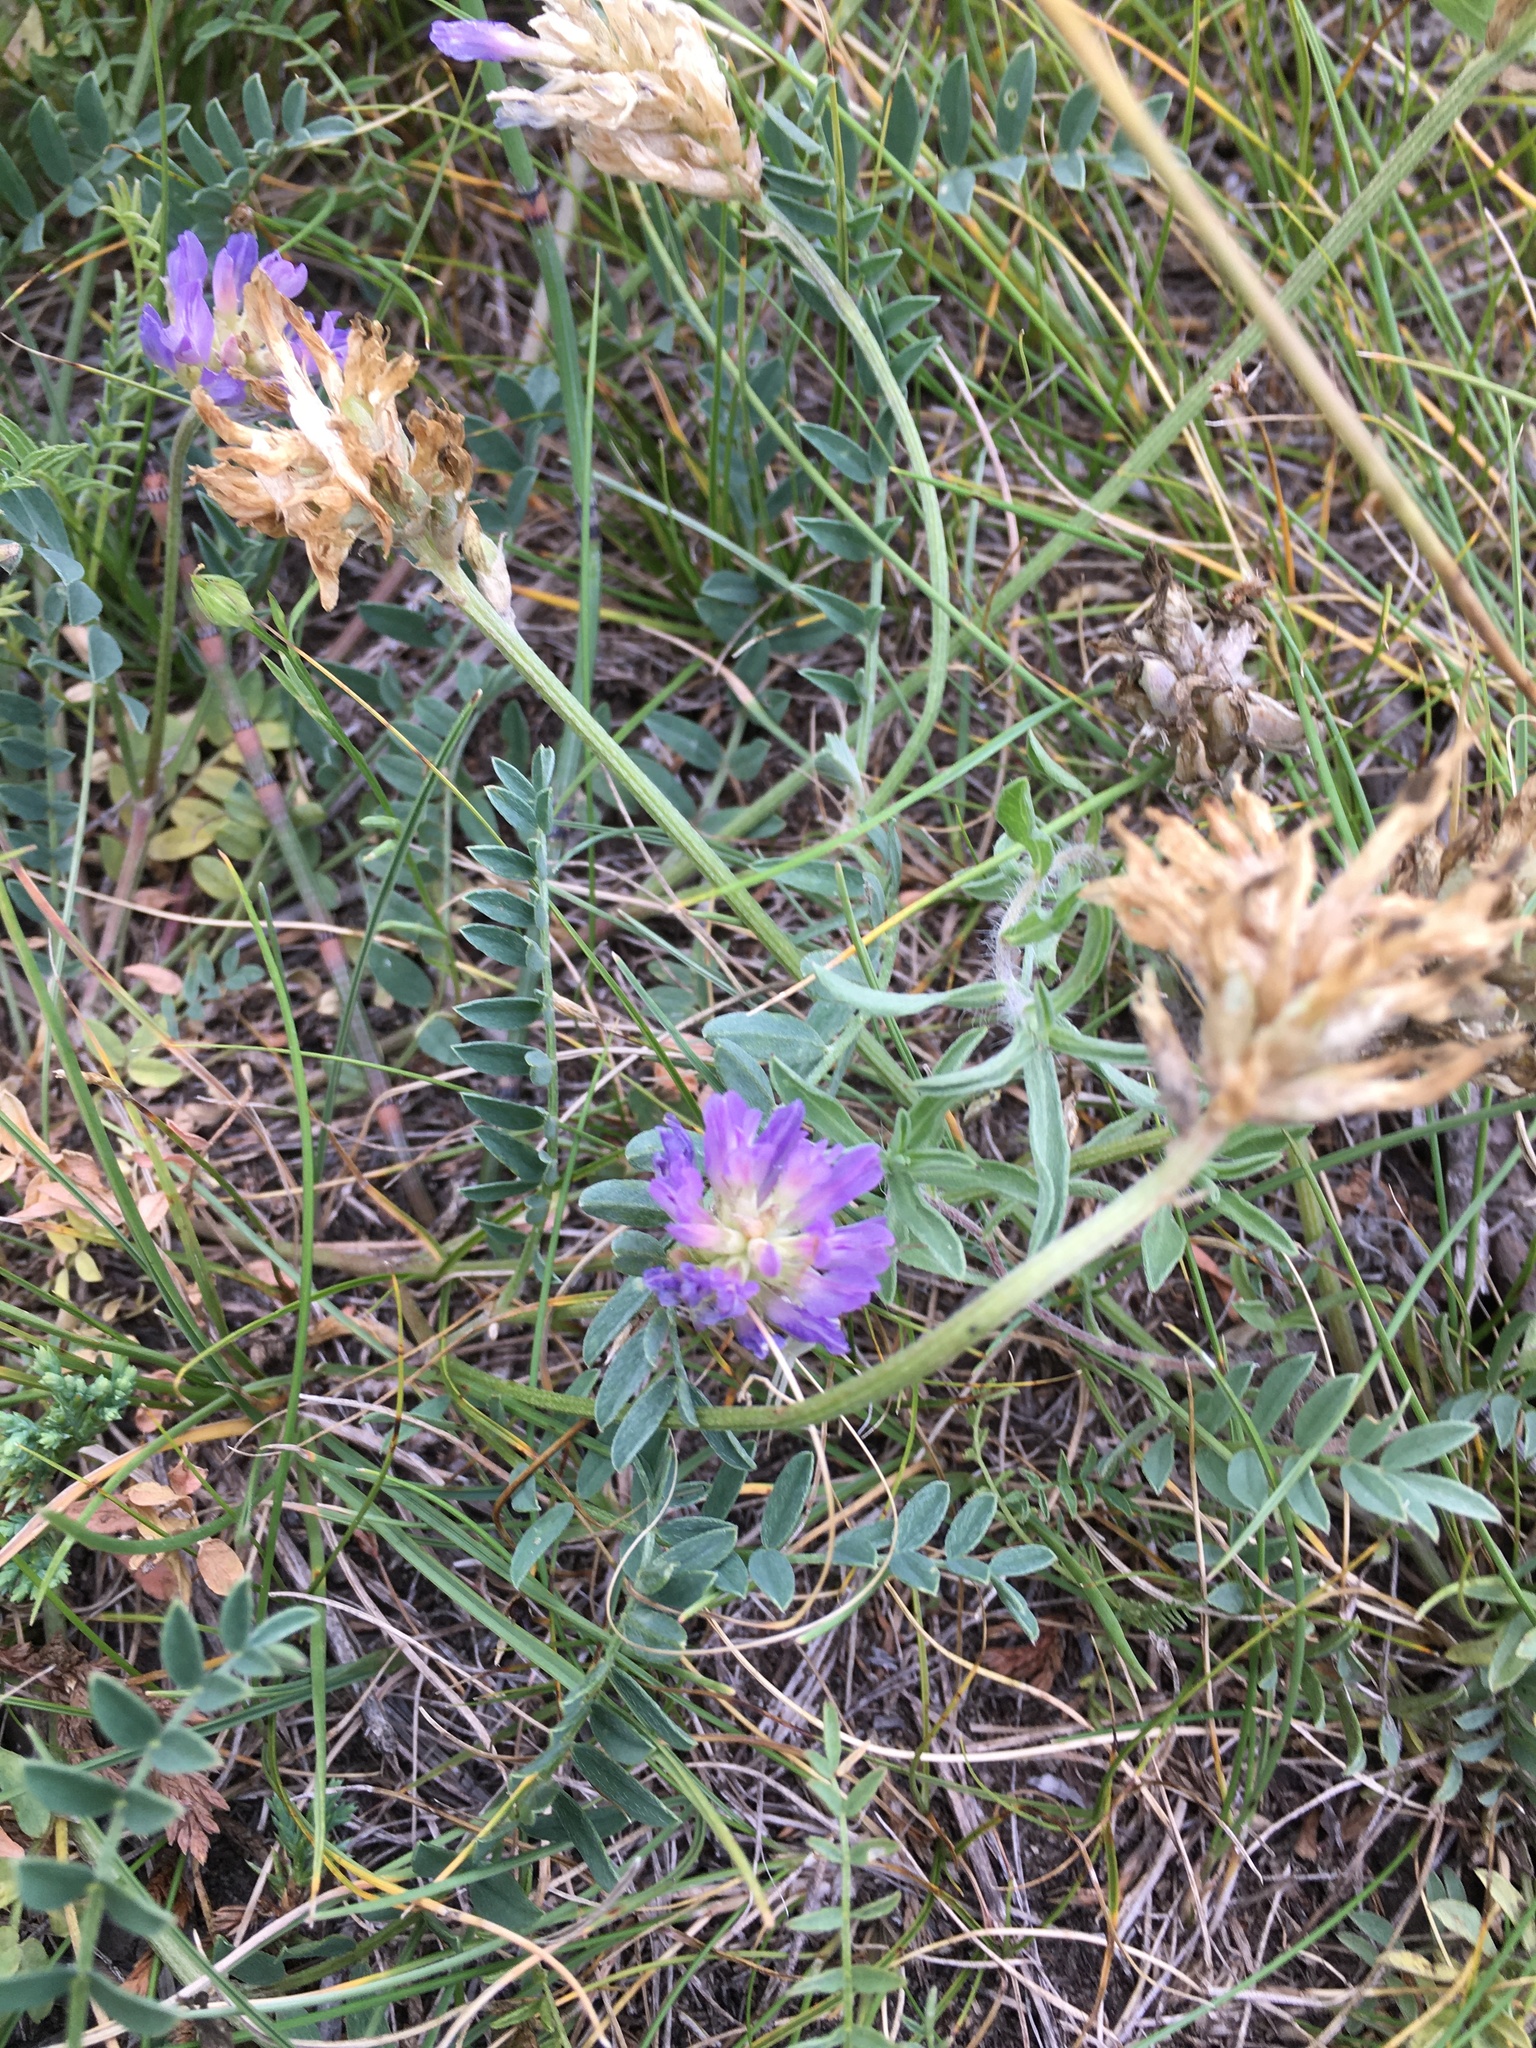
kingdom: Plantae
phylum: Tracheophyta
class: Magnoliopsida
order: Fabales
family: Fabaceae
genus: Astragalus
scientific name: Astragalus laxmannii
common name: Laxmann's milk-vetch
